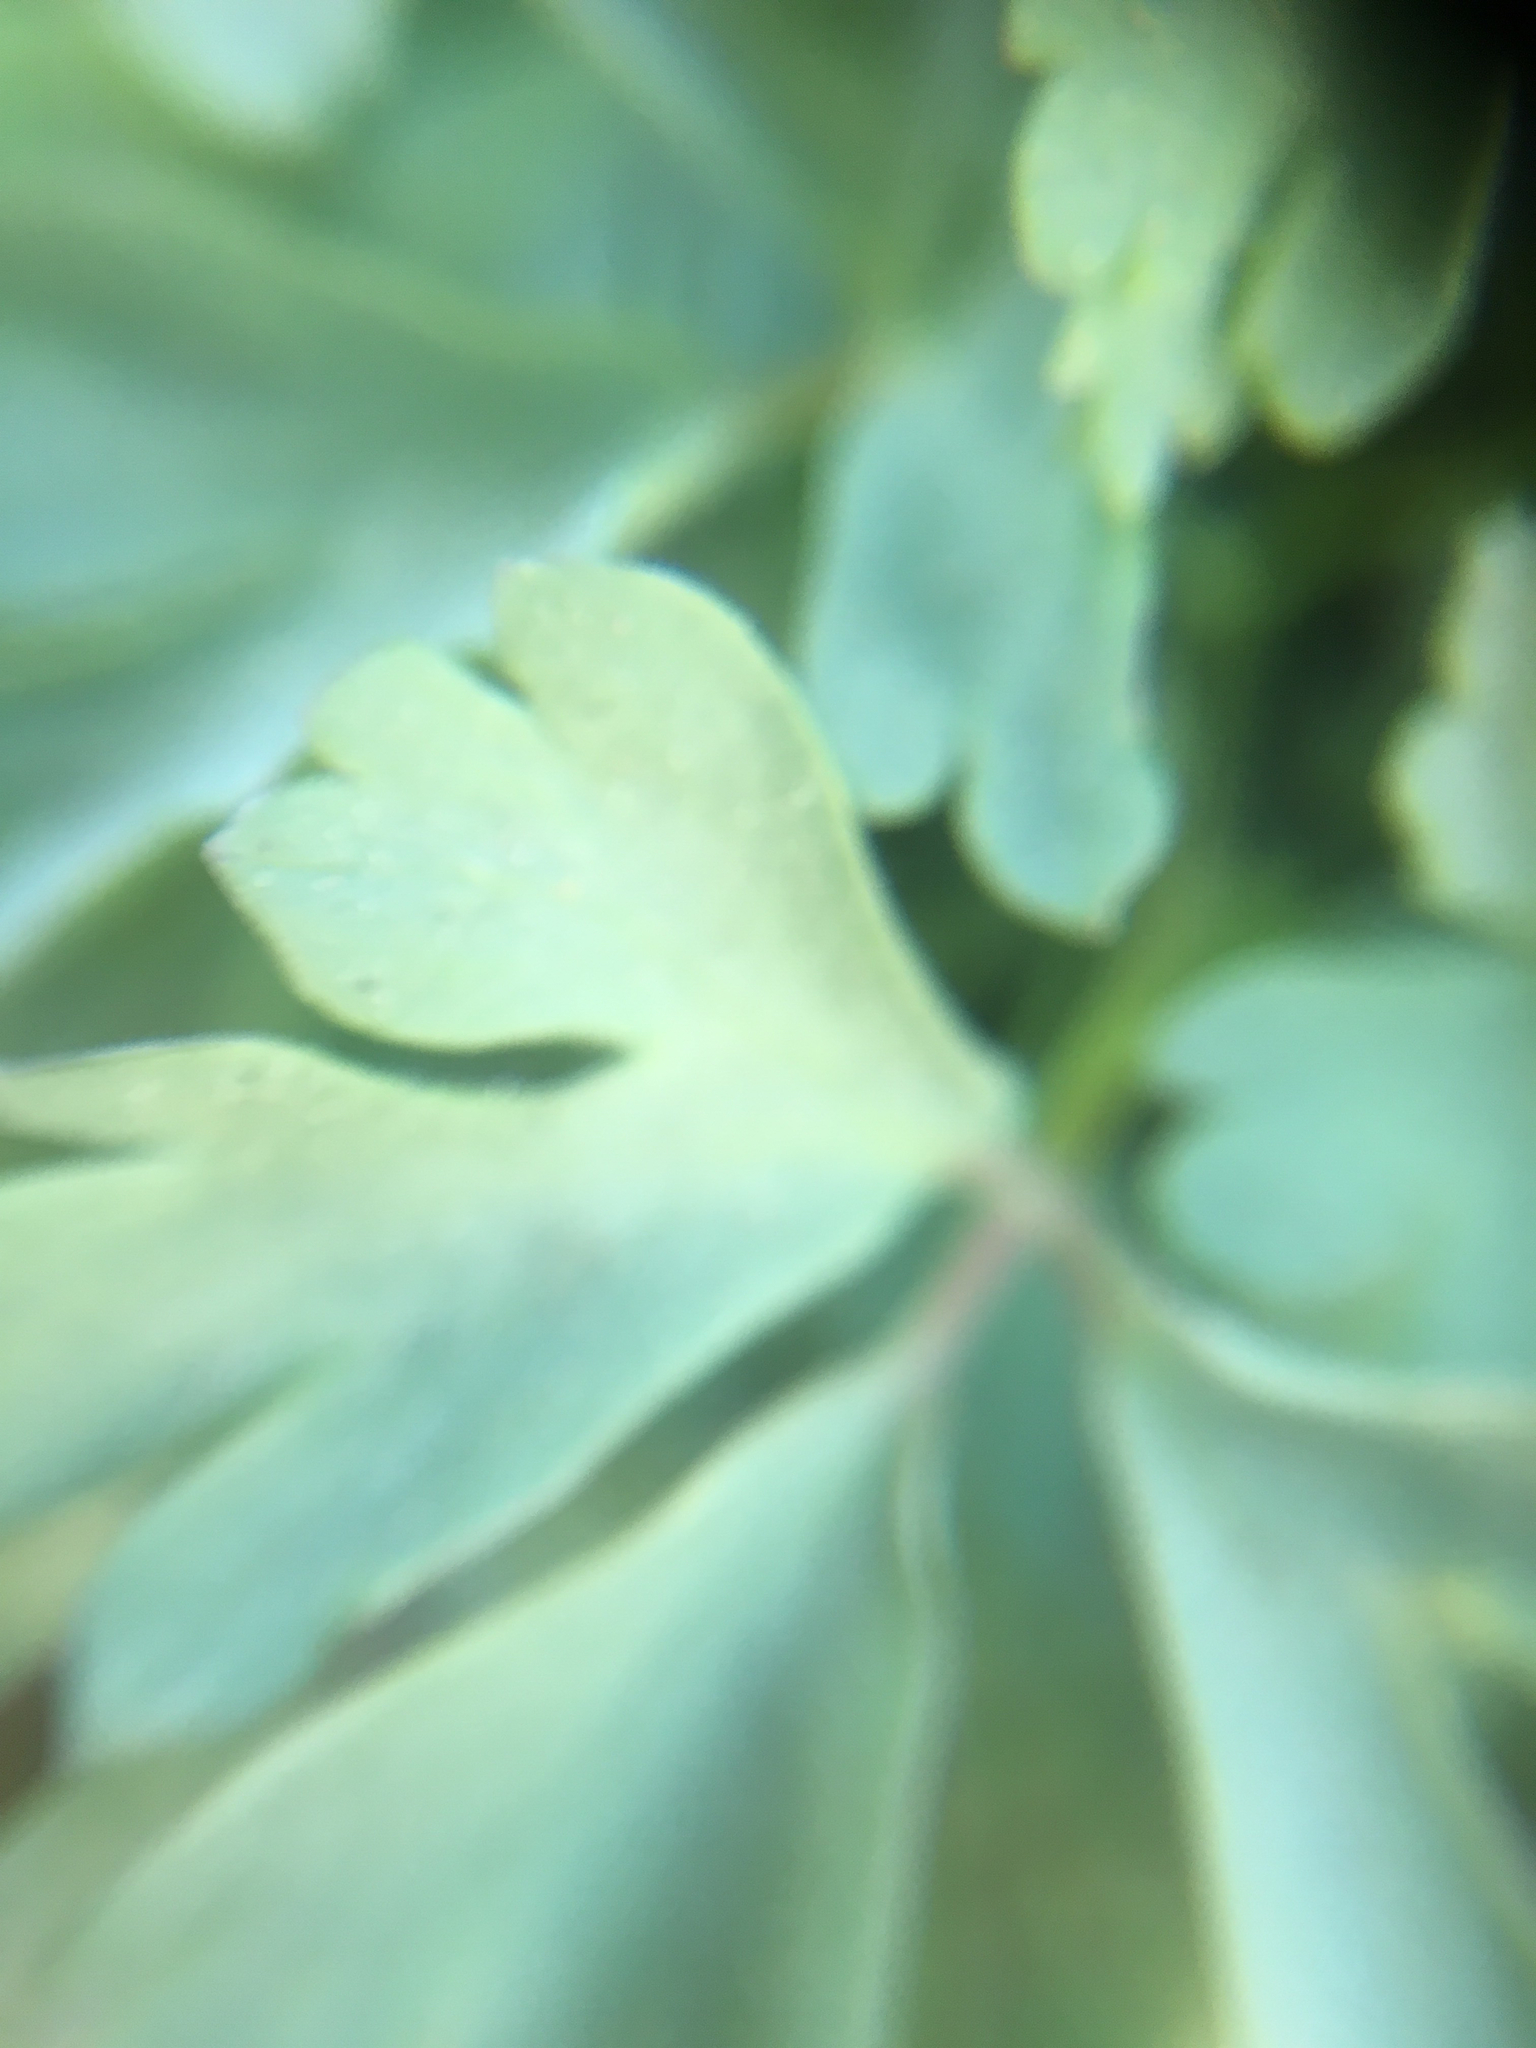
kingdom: Plantae
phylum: Tracheophyta
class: Magnoliopsida
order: Ranunculales
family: Ranunculaceae
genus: Aquilegia
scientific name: Aquilegia pubescens
